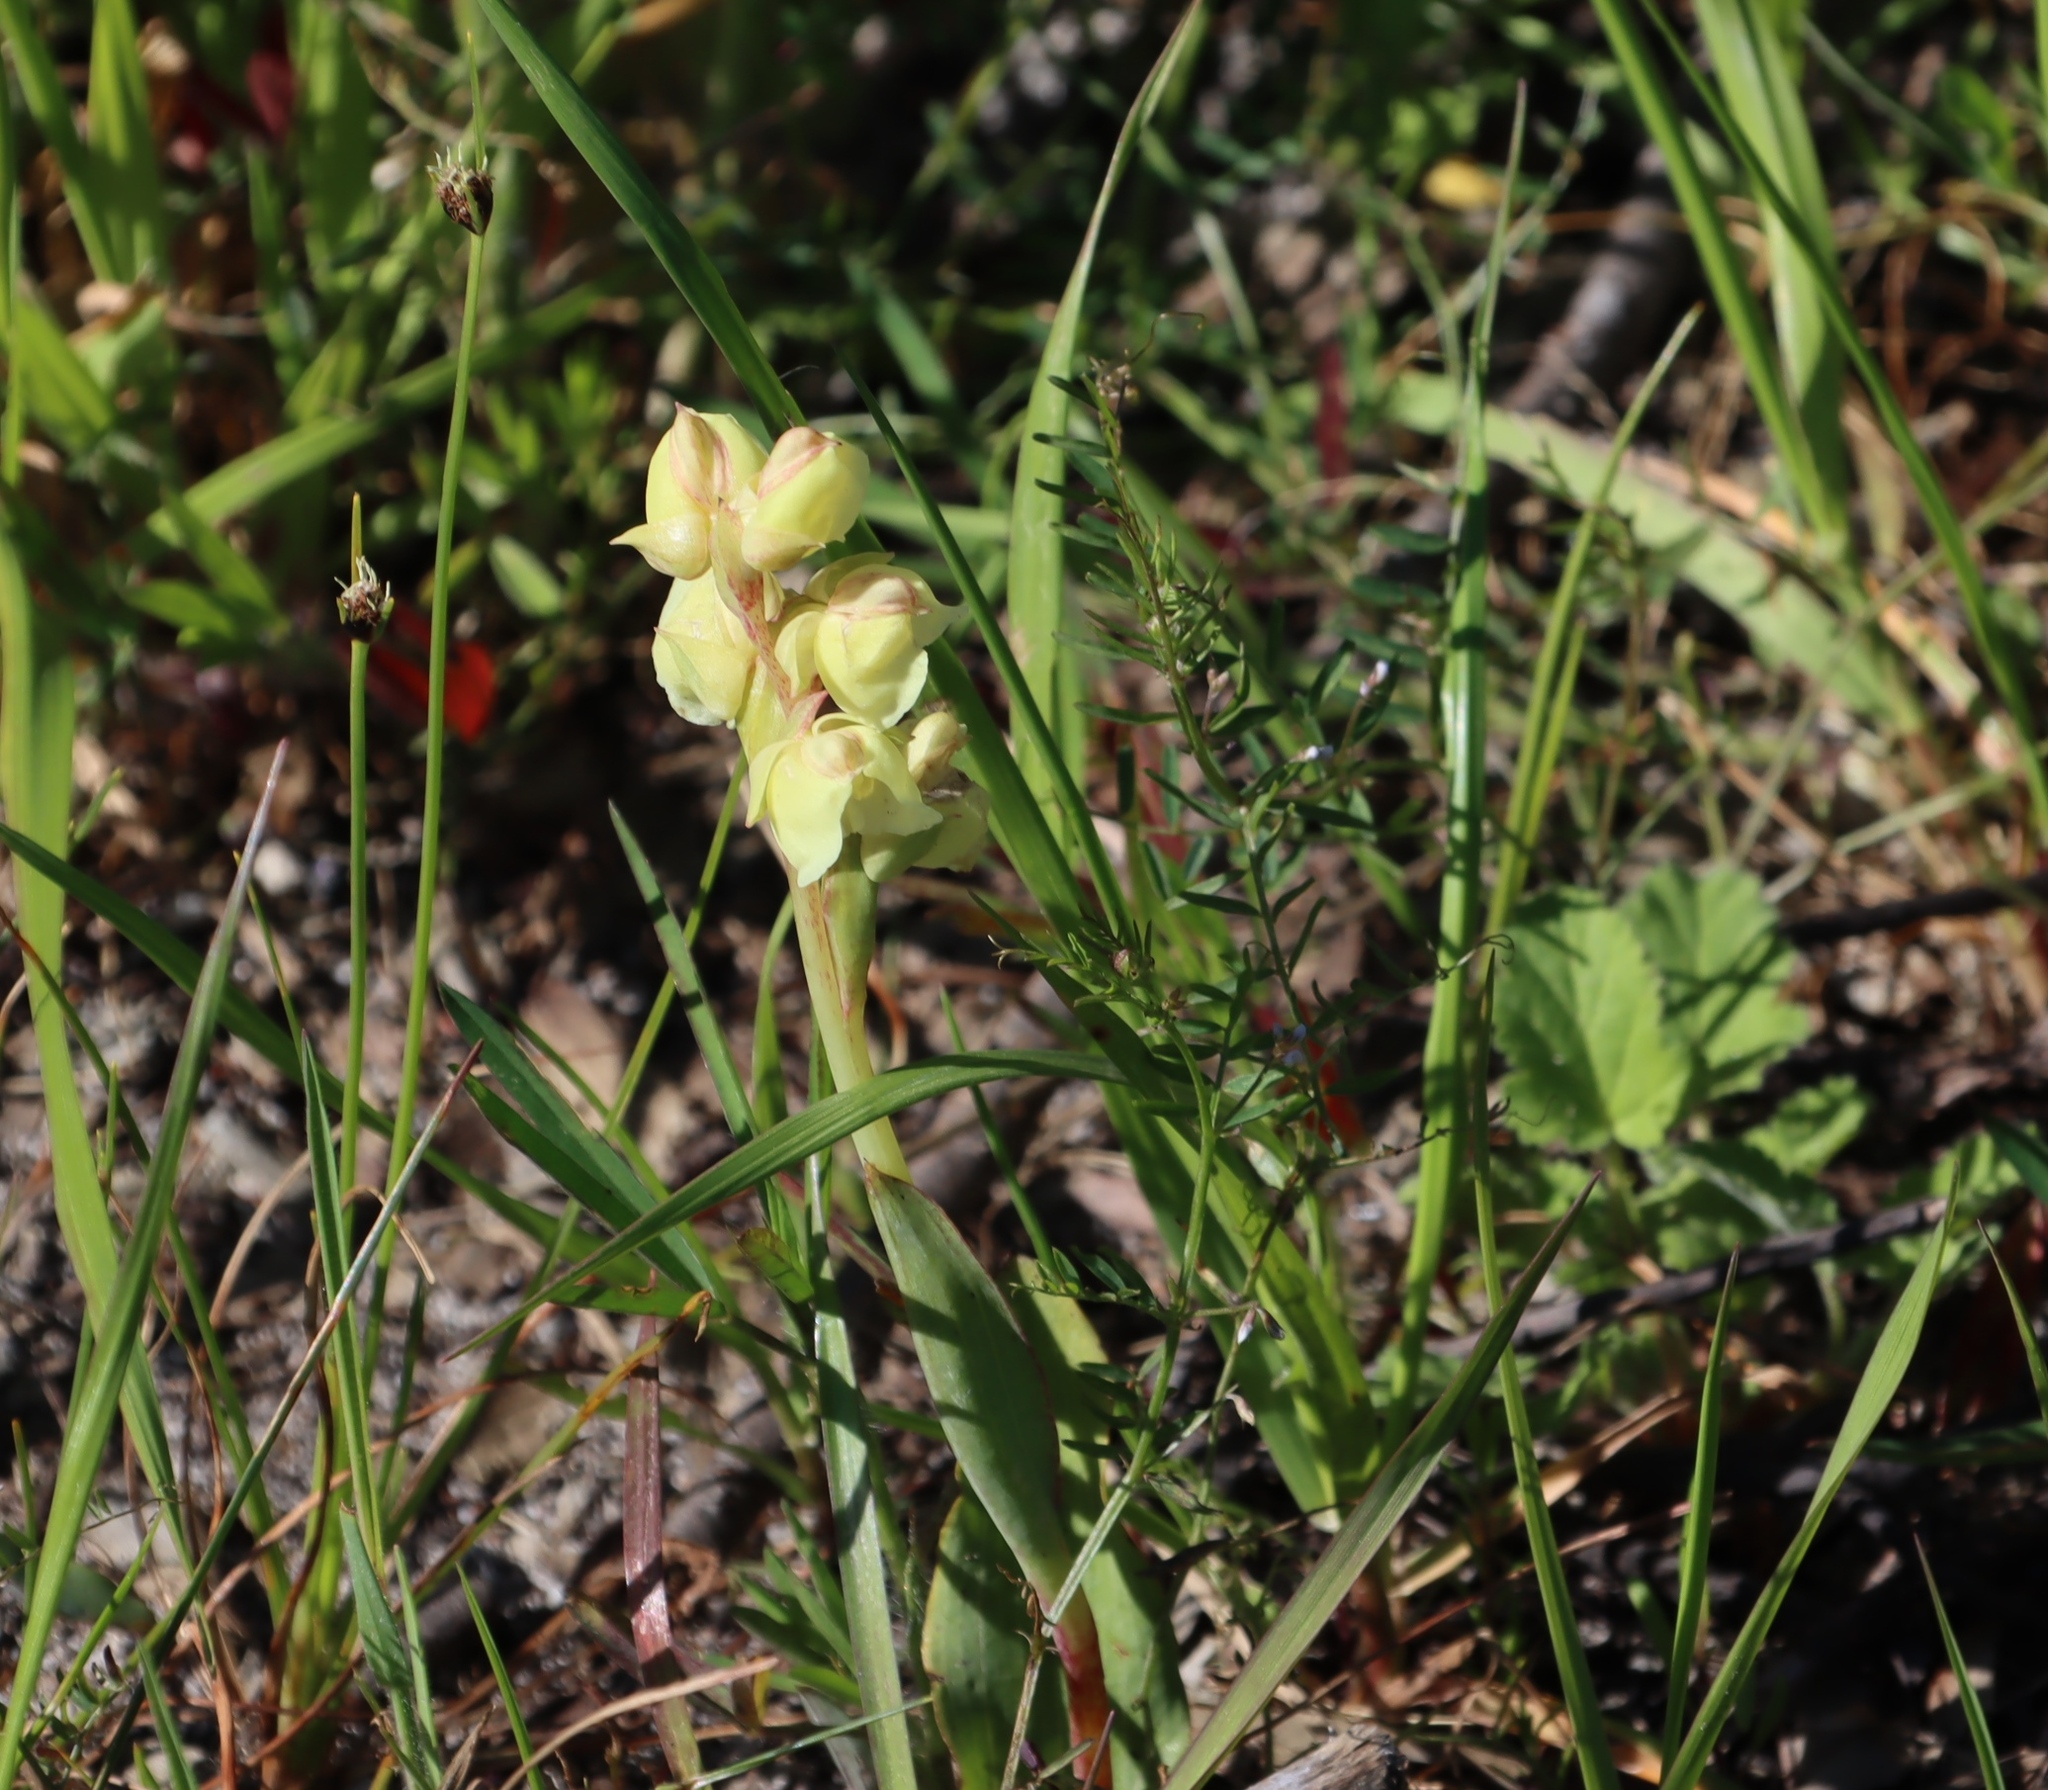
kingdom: Plantae
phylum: Tracheophyta
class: Liliopsida
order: Asparagales
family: Orchidaceae
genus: Pterygodium
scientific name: Pterygodium catholicum
